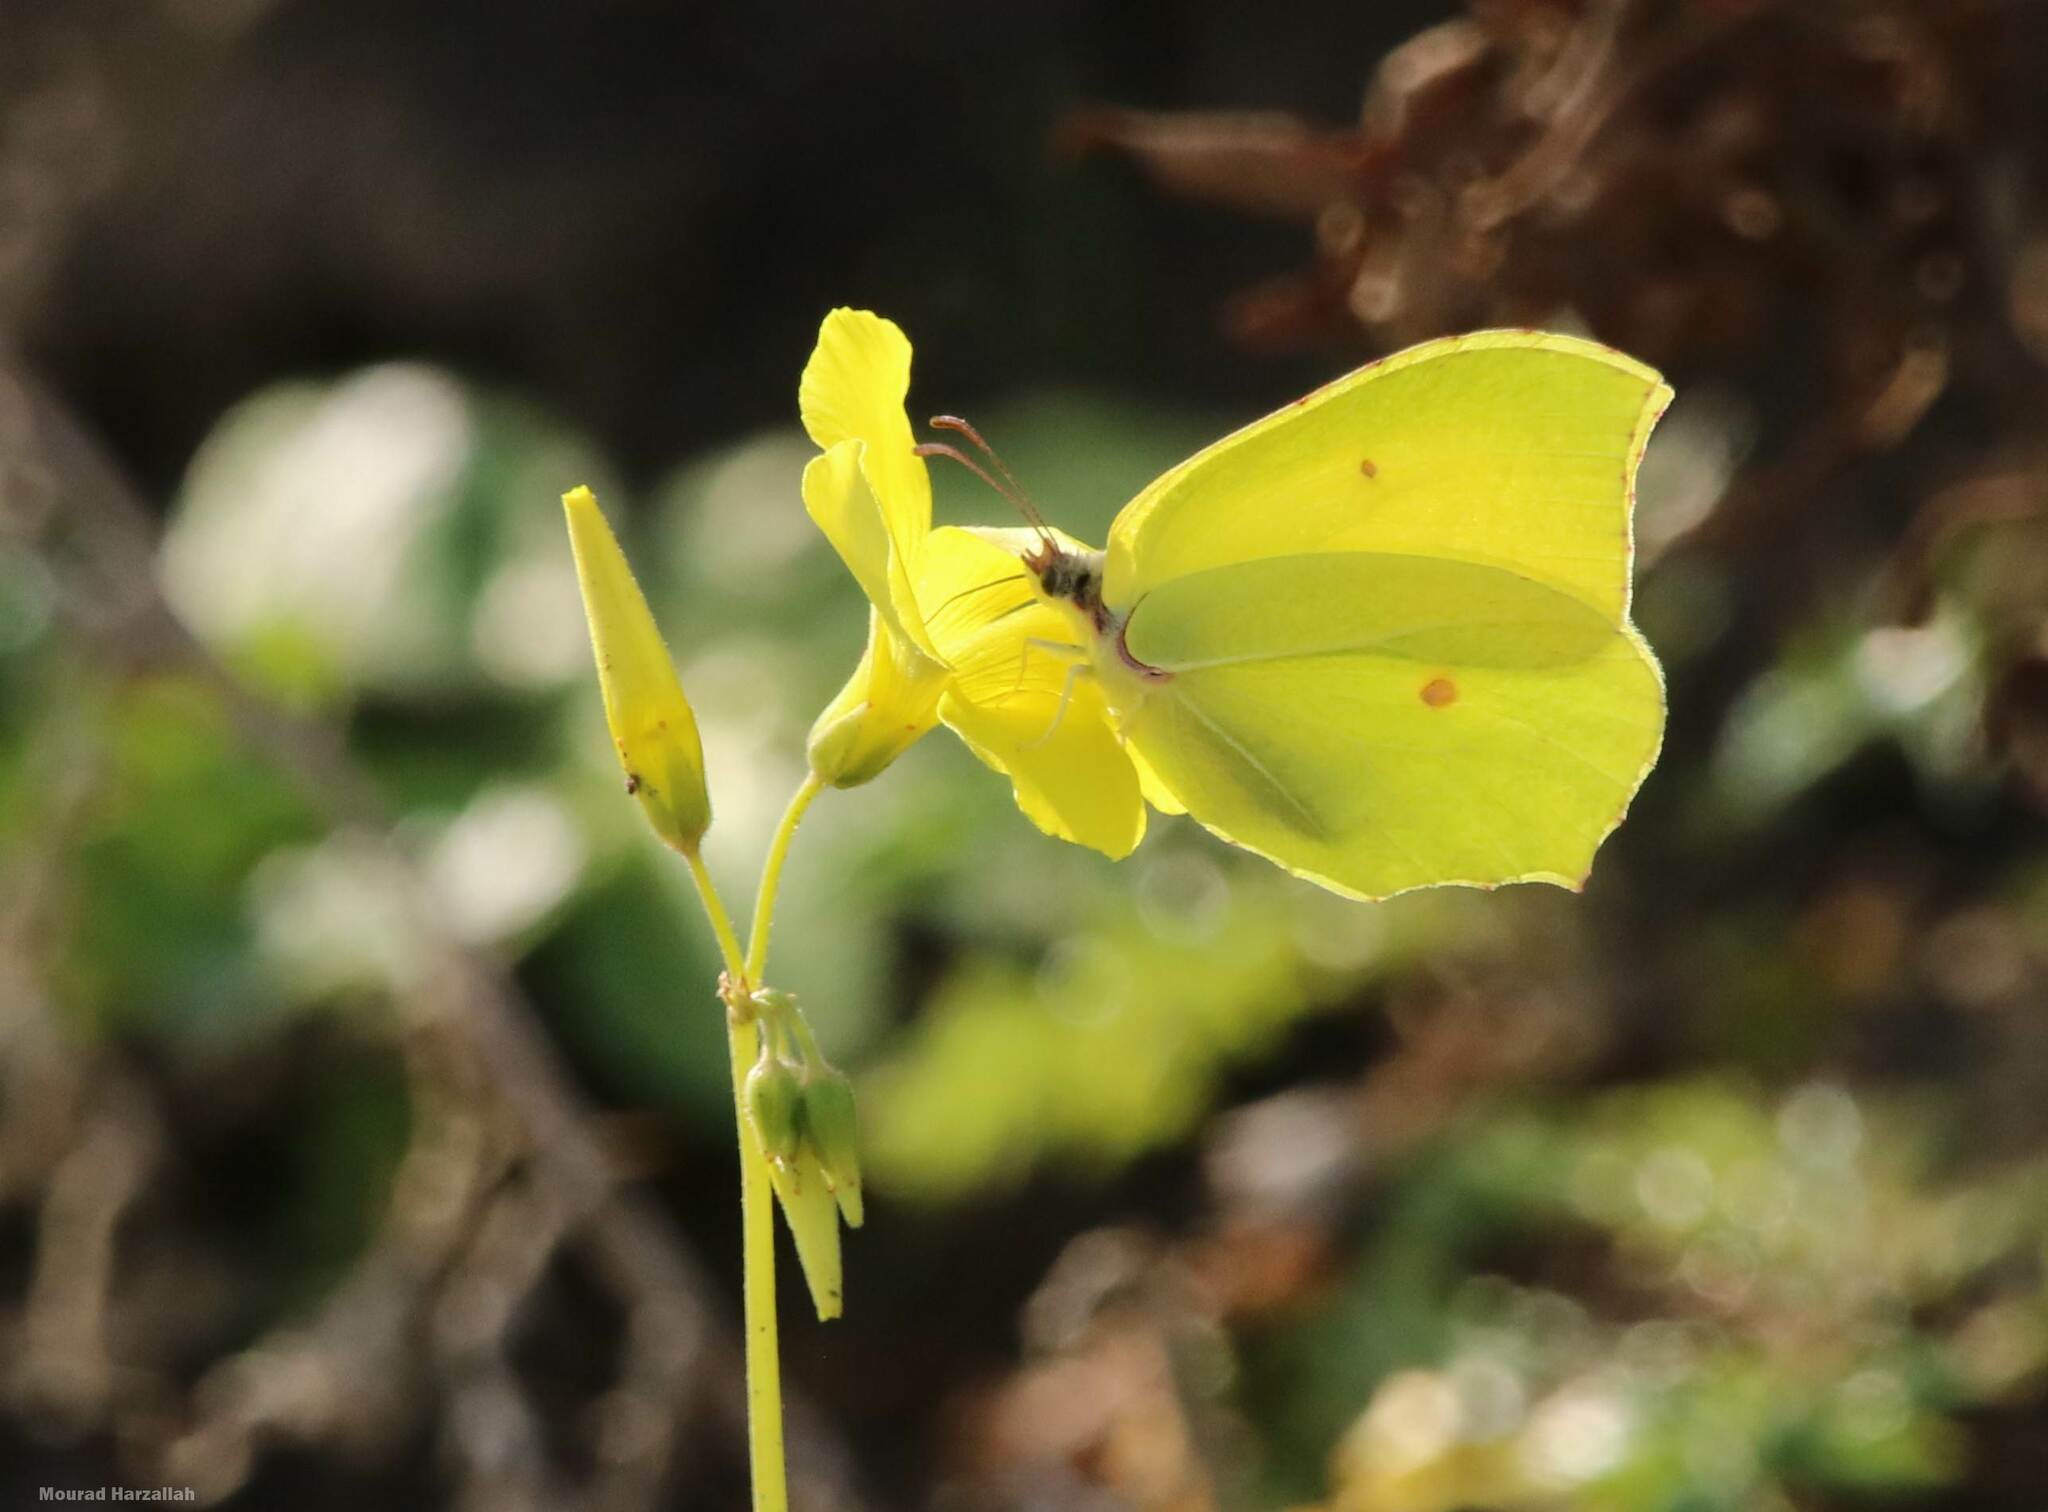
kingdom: Animalia
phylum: Arthropoda
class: Insecta
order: Lepidoptera
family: Pieridae
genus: Gonepteryx
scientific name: Gonepteryx rhamni
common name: Brimstone
